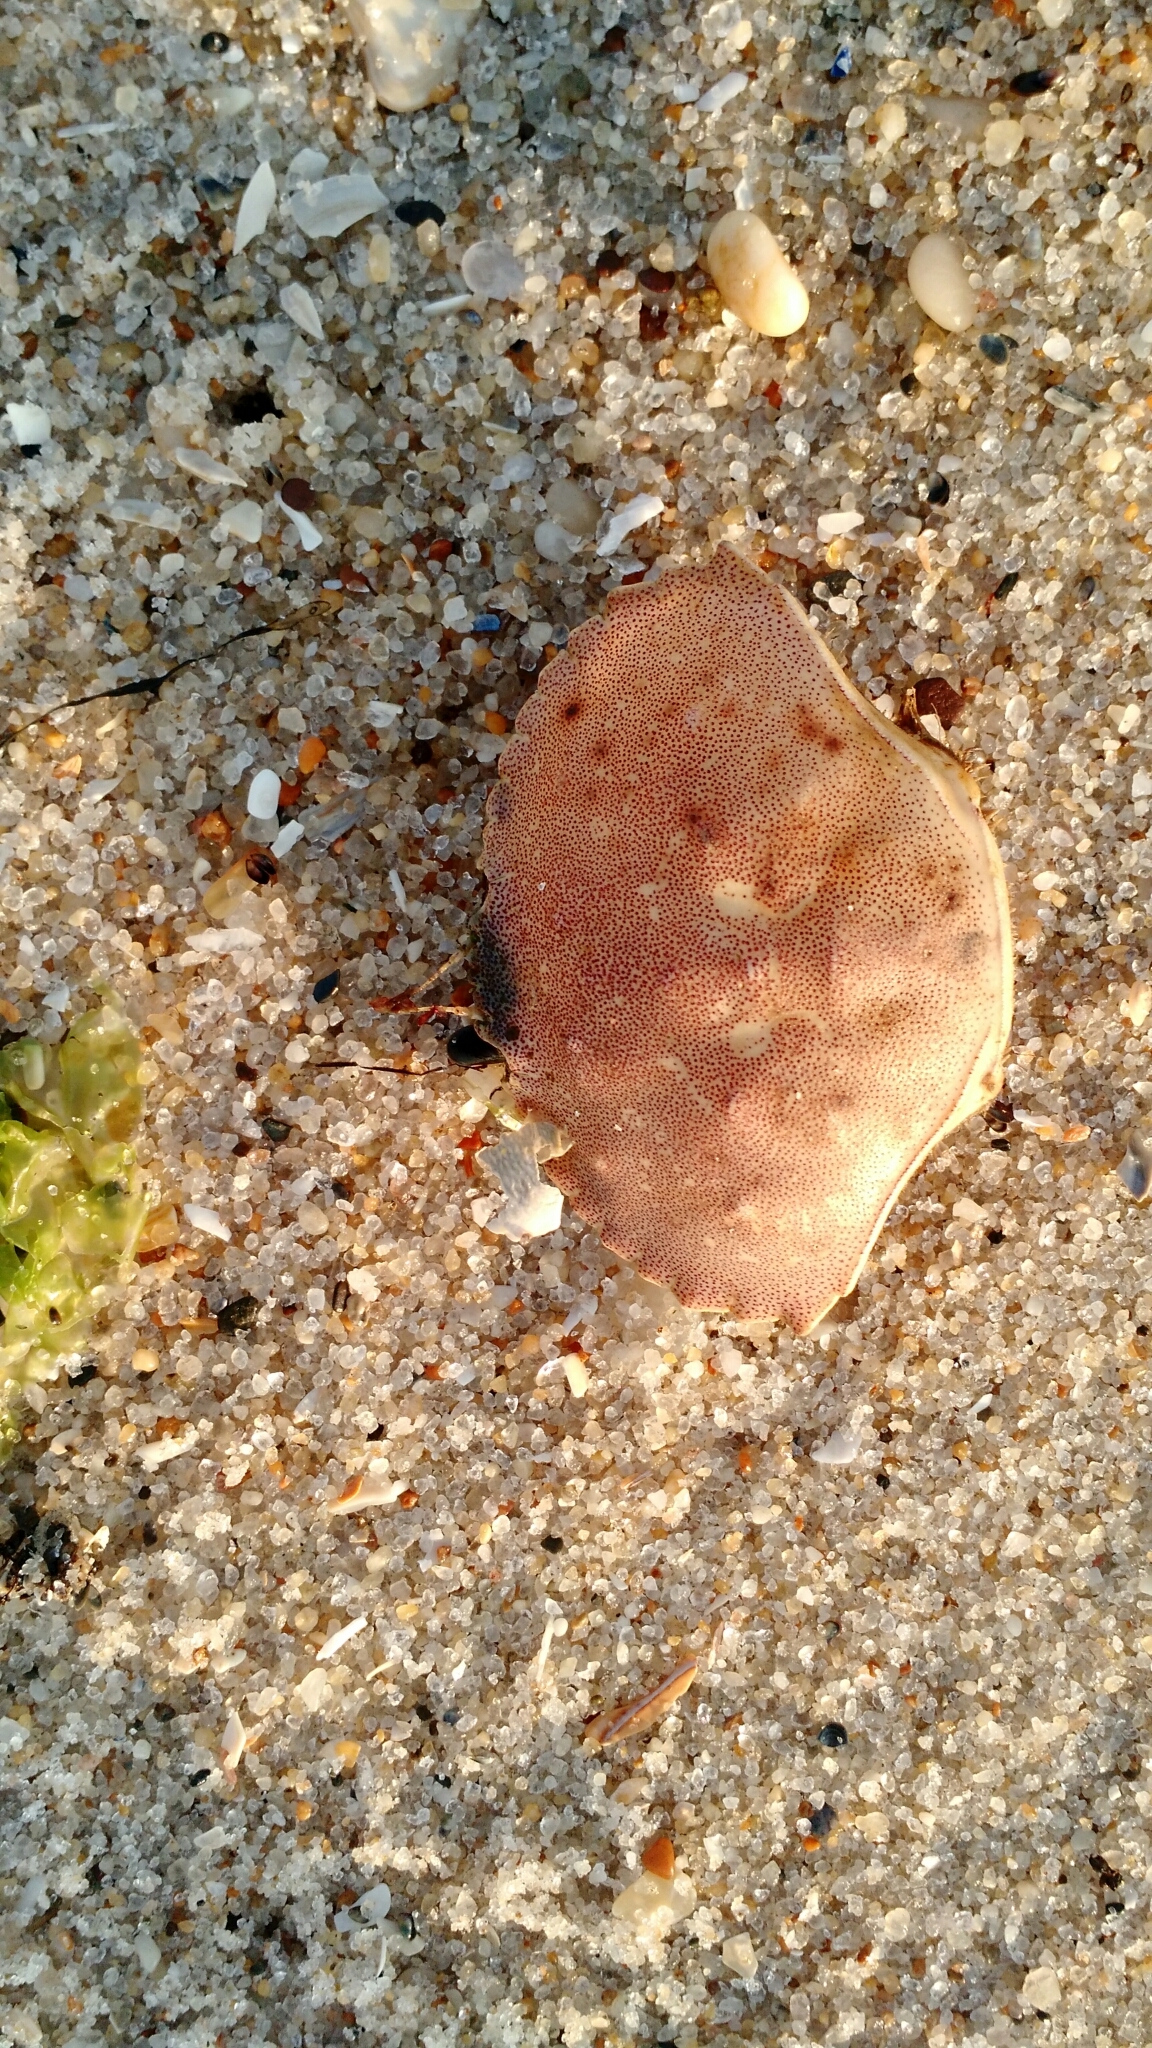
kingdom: Animalia
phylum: Arthropoda
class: Malacostraca
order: Decapoda
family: Cancridae
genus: Cancer
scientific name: Cancer irroratus
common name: Atlantic rock crab
